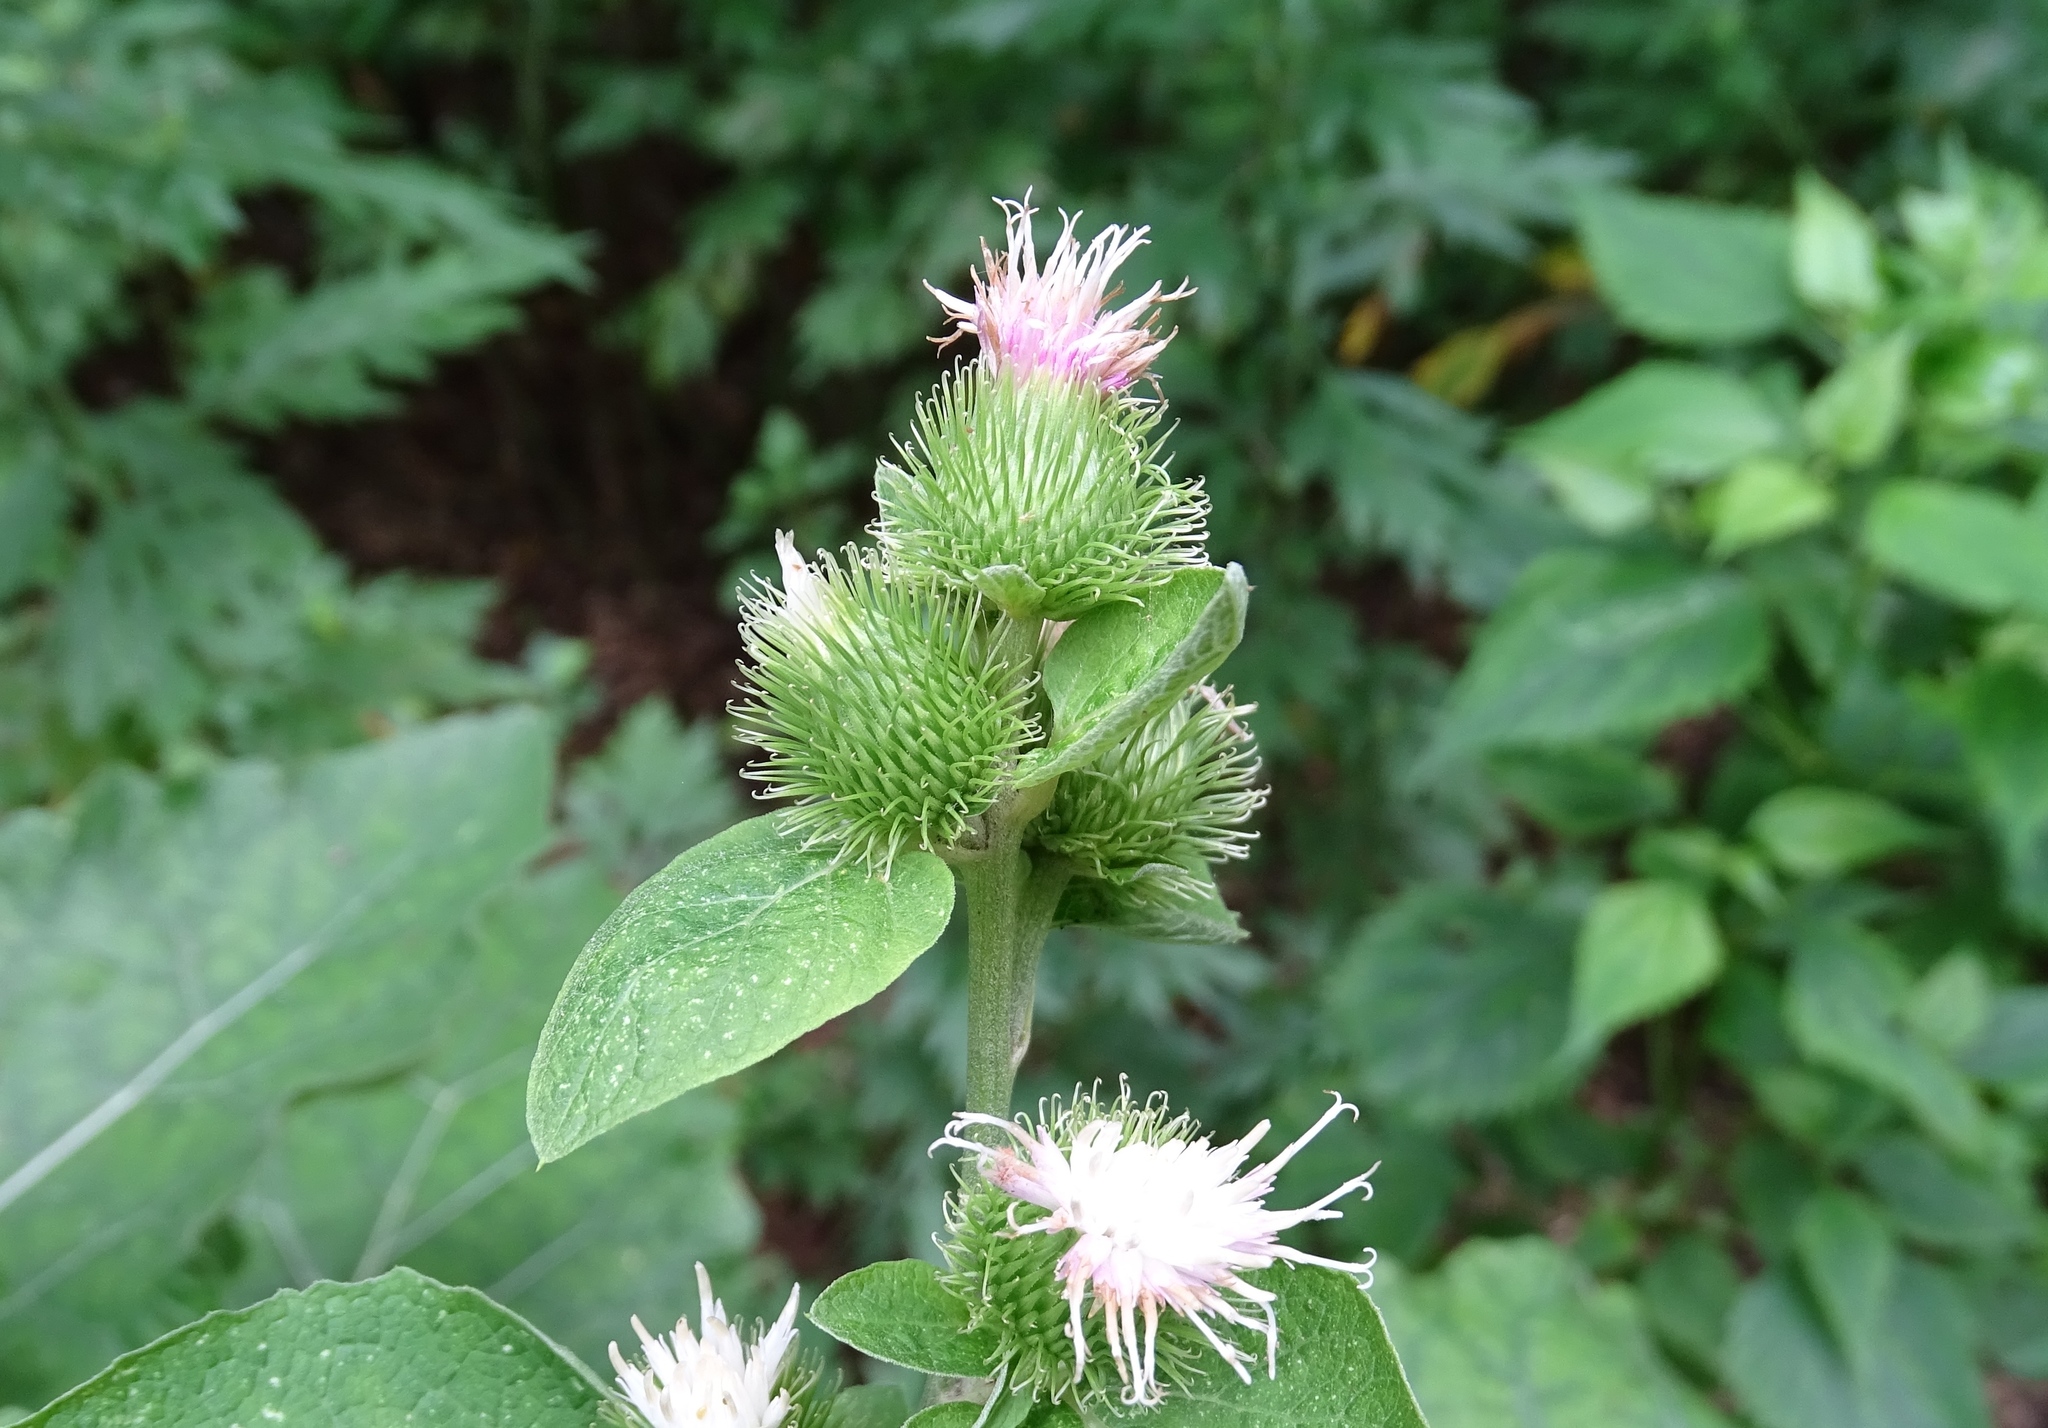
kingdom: Plantae
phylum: Tracheophyta
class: Magnoliopsida
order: Asterales
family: Asteraceae
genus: Arctium
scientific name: Arctium minus
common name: Lesser burdock
